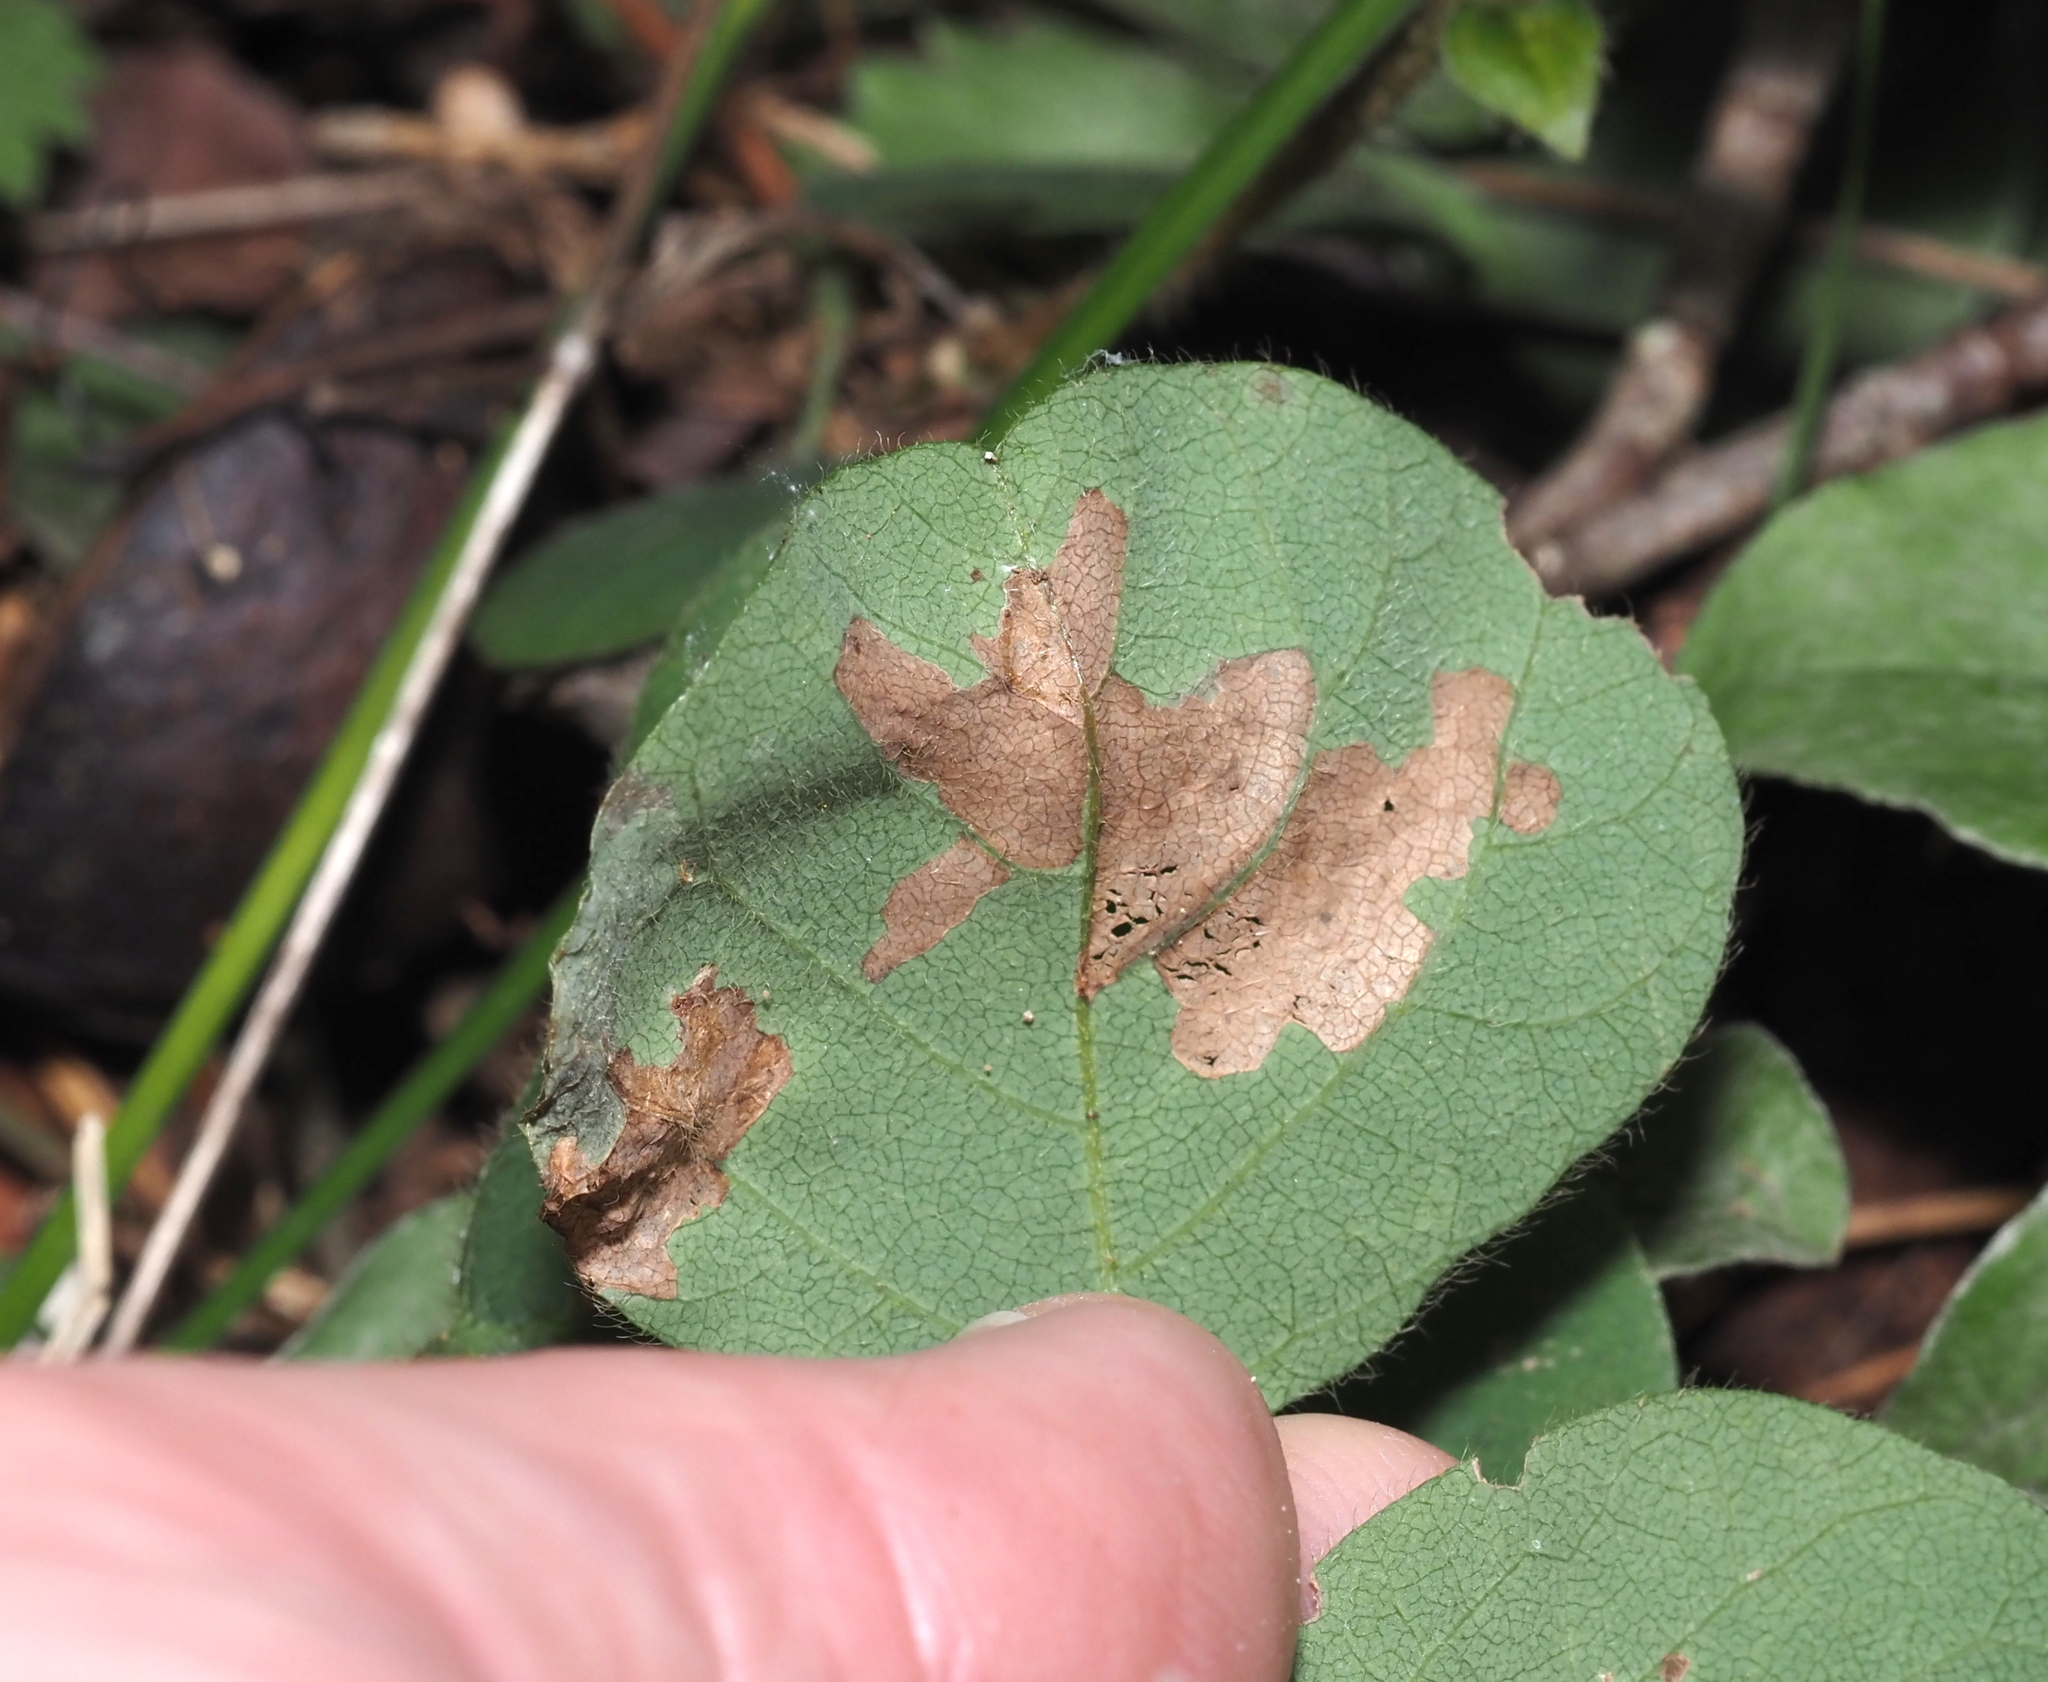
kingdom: Animalia
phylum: Arthropoda
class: Insecta
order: Lepidoptera
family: Gracillariidae
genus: Parectopa
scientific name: Parectopa robiniella
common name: Locust digitate leafminer
